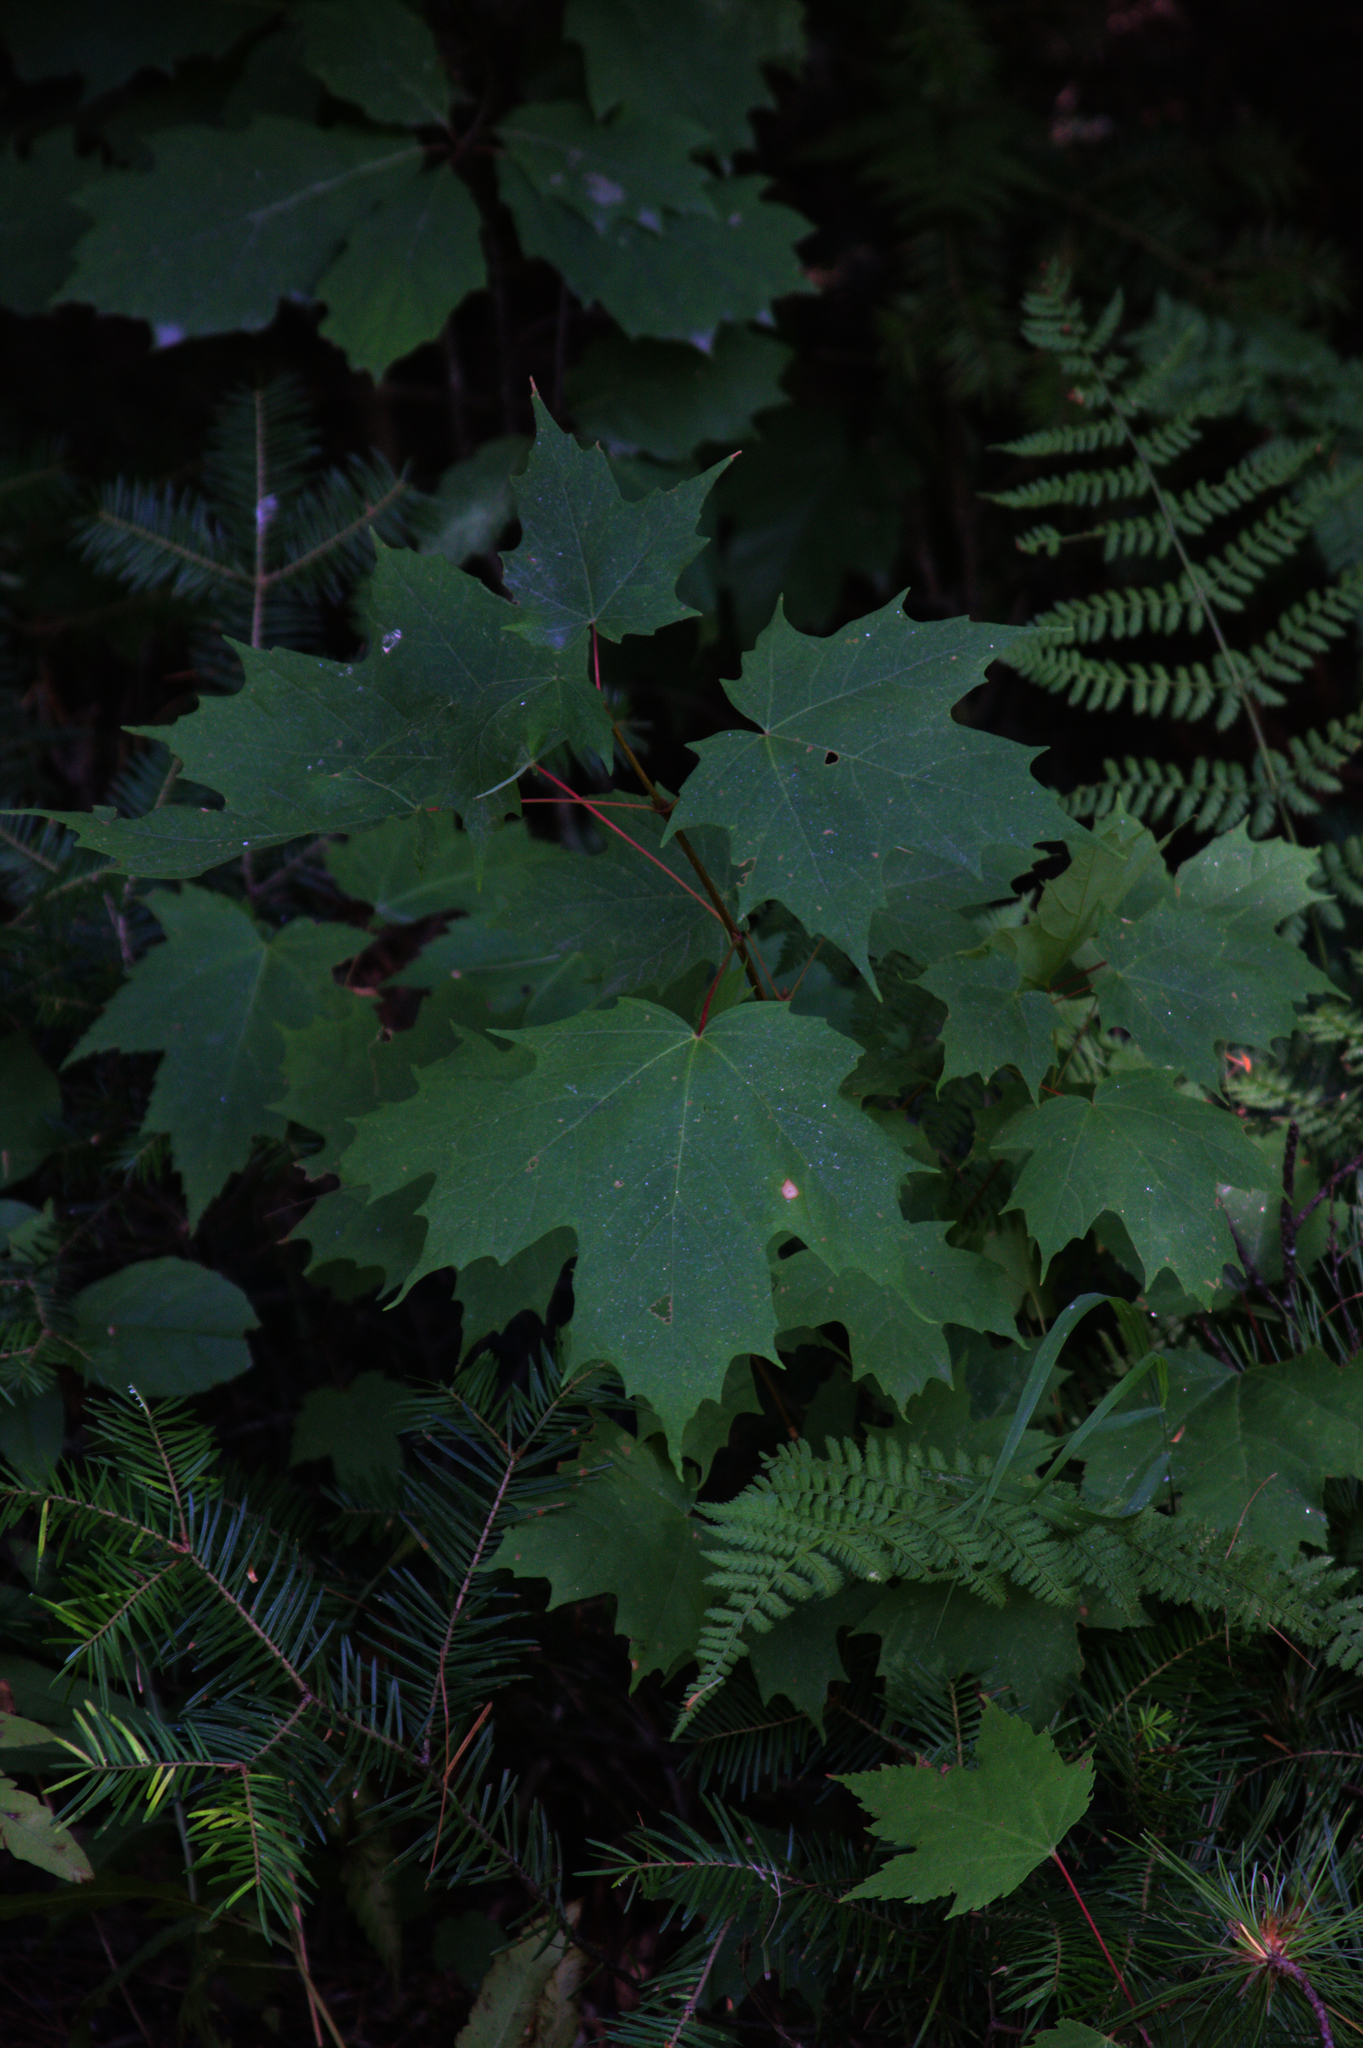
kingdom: Plantae
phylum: Tracheophyta
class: Magnoliopsida
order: Sapindales
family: Sapindaceae
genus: Acer
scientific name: Acer rubrum
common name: Red maple
